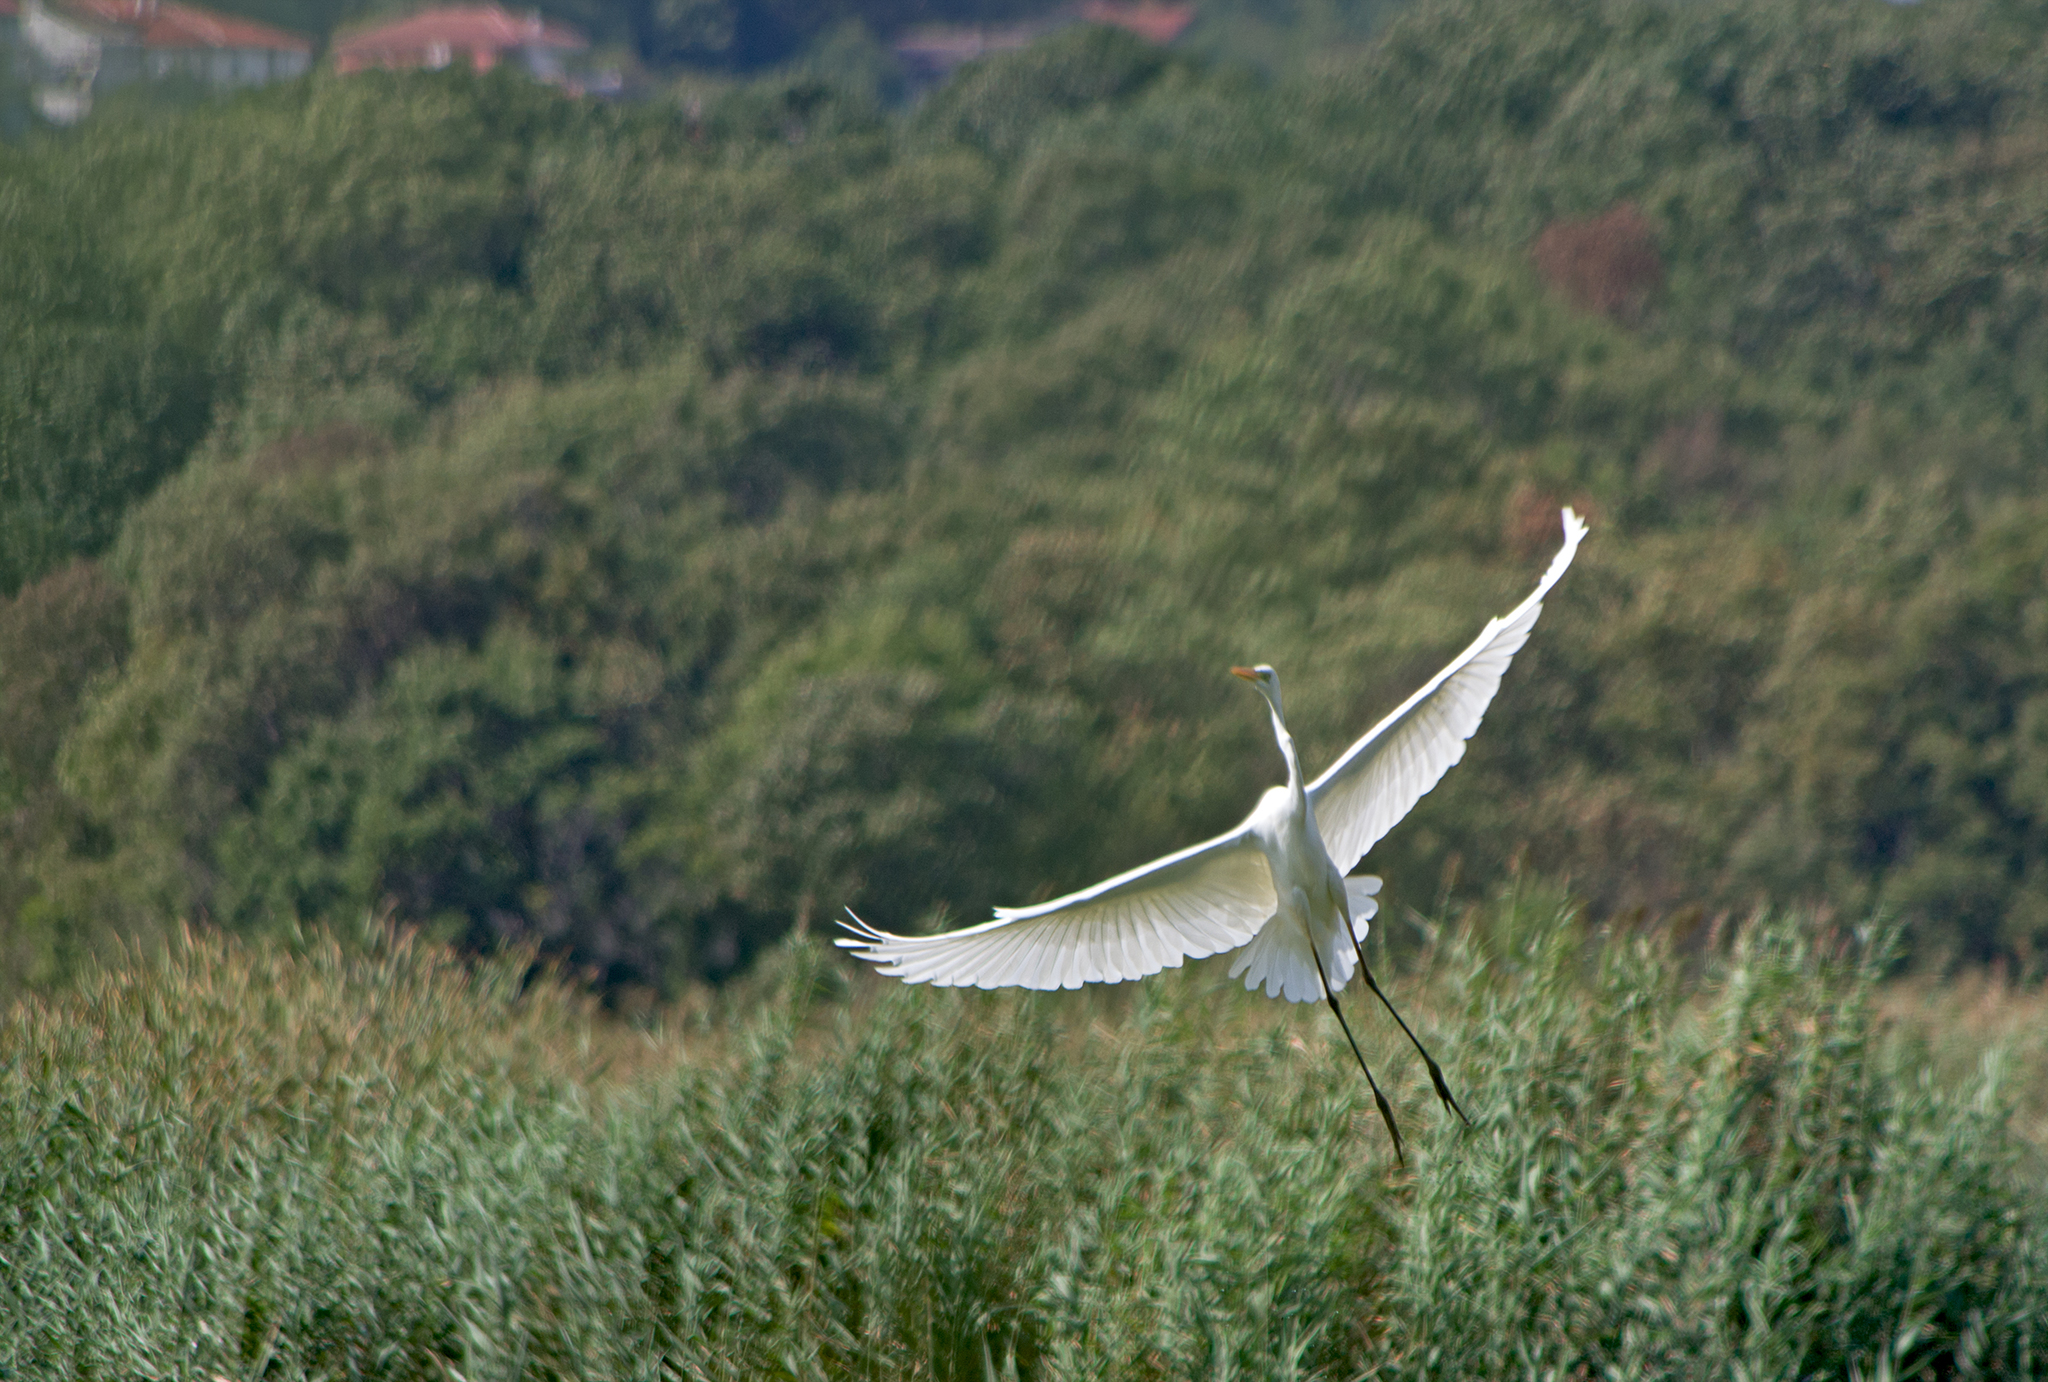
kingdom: Animalia
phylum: Chordata
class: Aves
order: Pelecaniformes
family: Ardeidae
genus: Ardea
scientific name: Ardea alba
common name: Great egret
